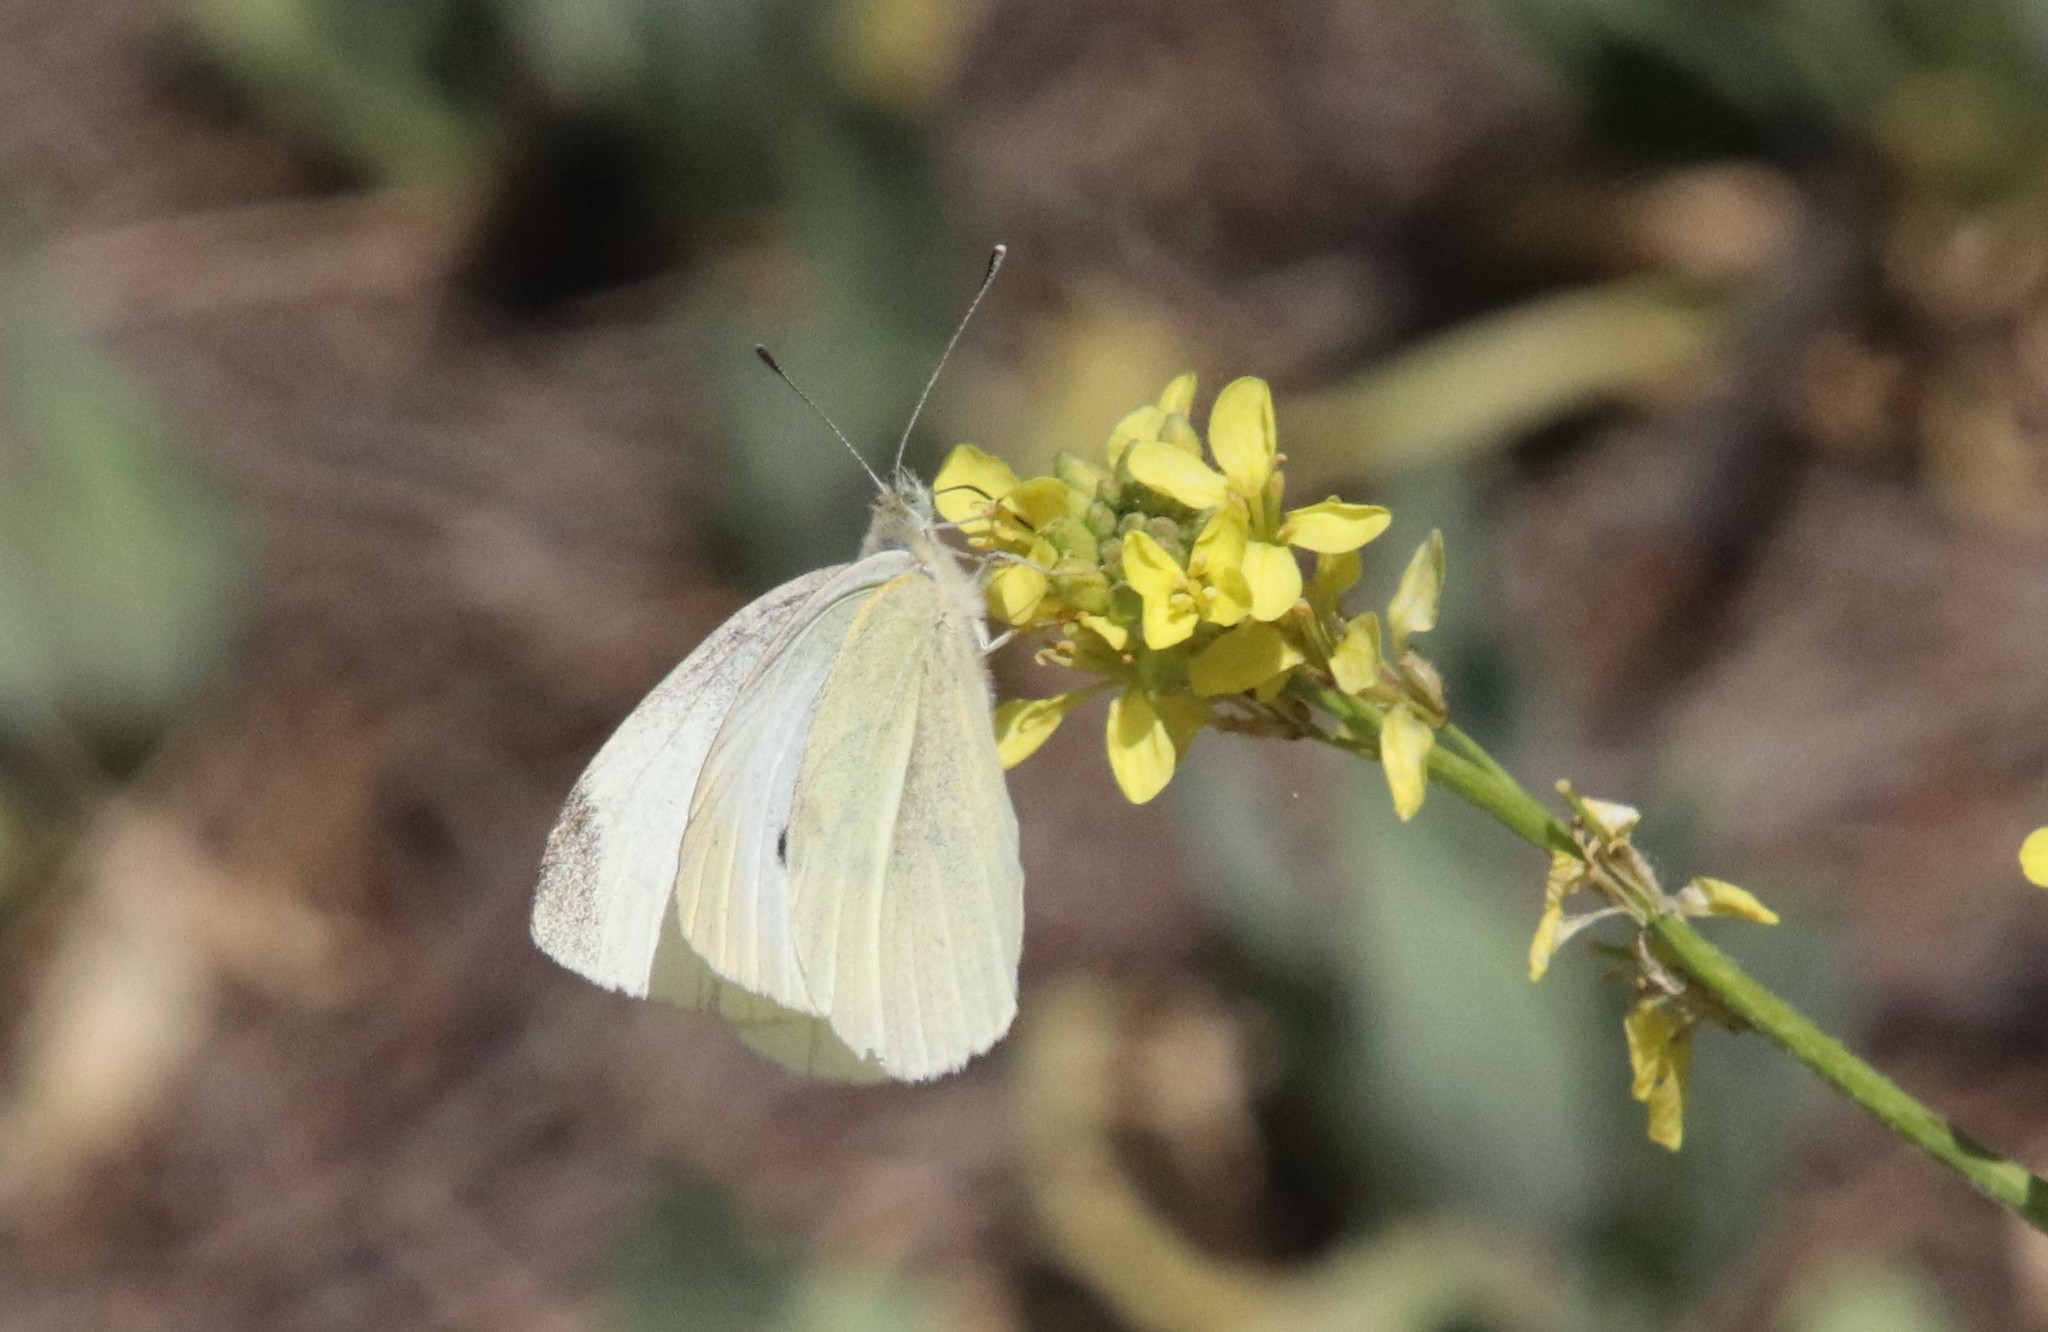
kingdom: Animalia
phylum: Arthropoda
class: Insecta
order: Lepidoptera
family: Pieridae
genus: Pieris
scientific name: Pieris rapae
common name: Small white
